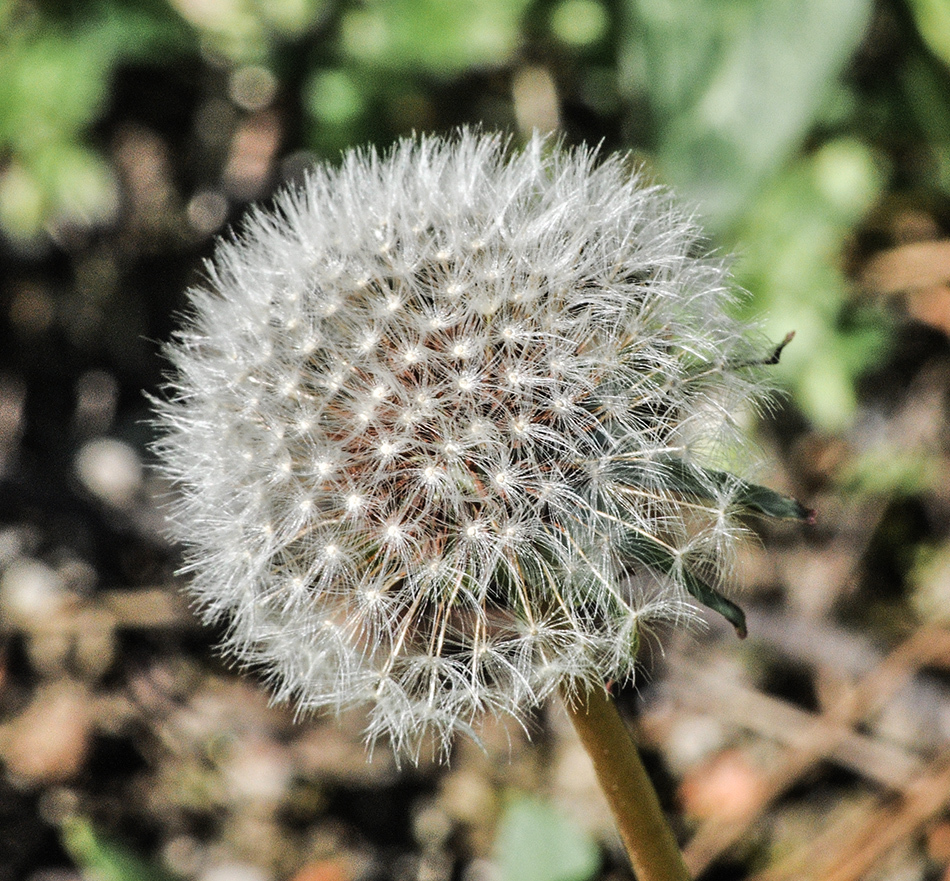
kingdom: Plantae
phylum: Tracheophyta
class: Magnoliopsida
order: Asterales
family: Asteraceae
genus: Taraxacum
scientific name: Taraxacum officinale
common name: Common dandelion
